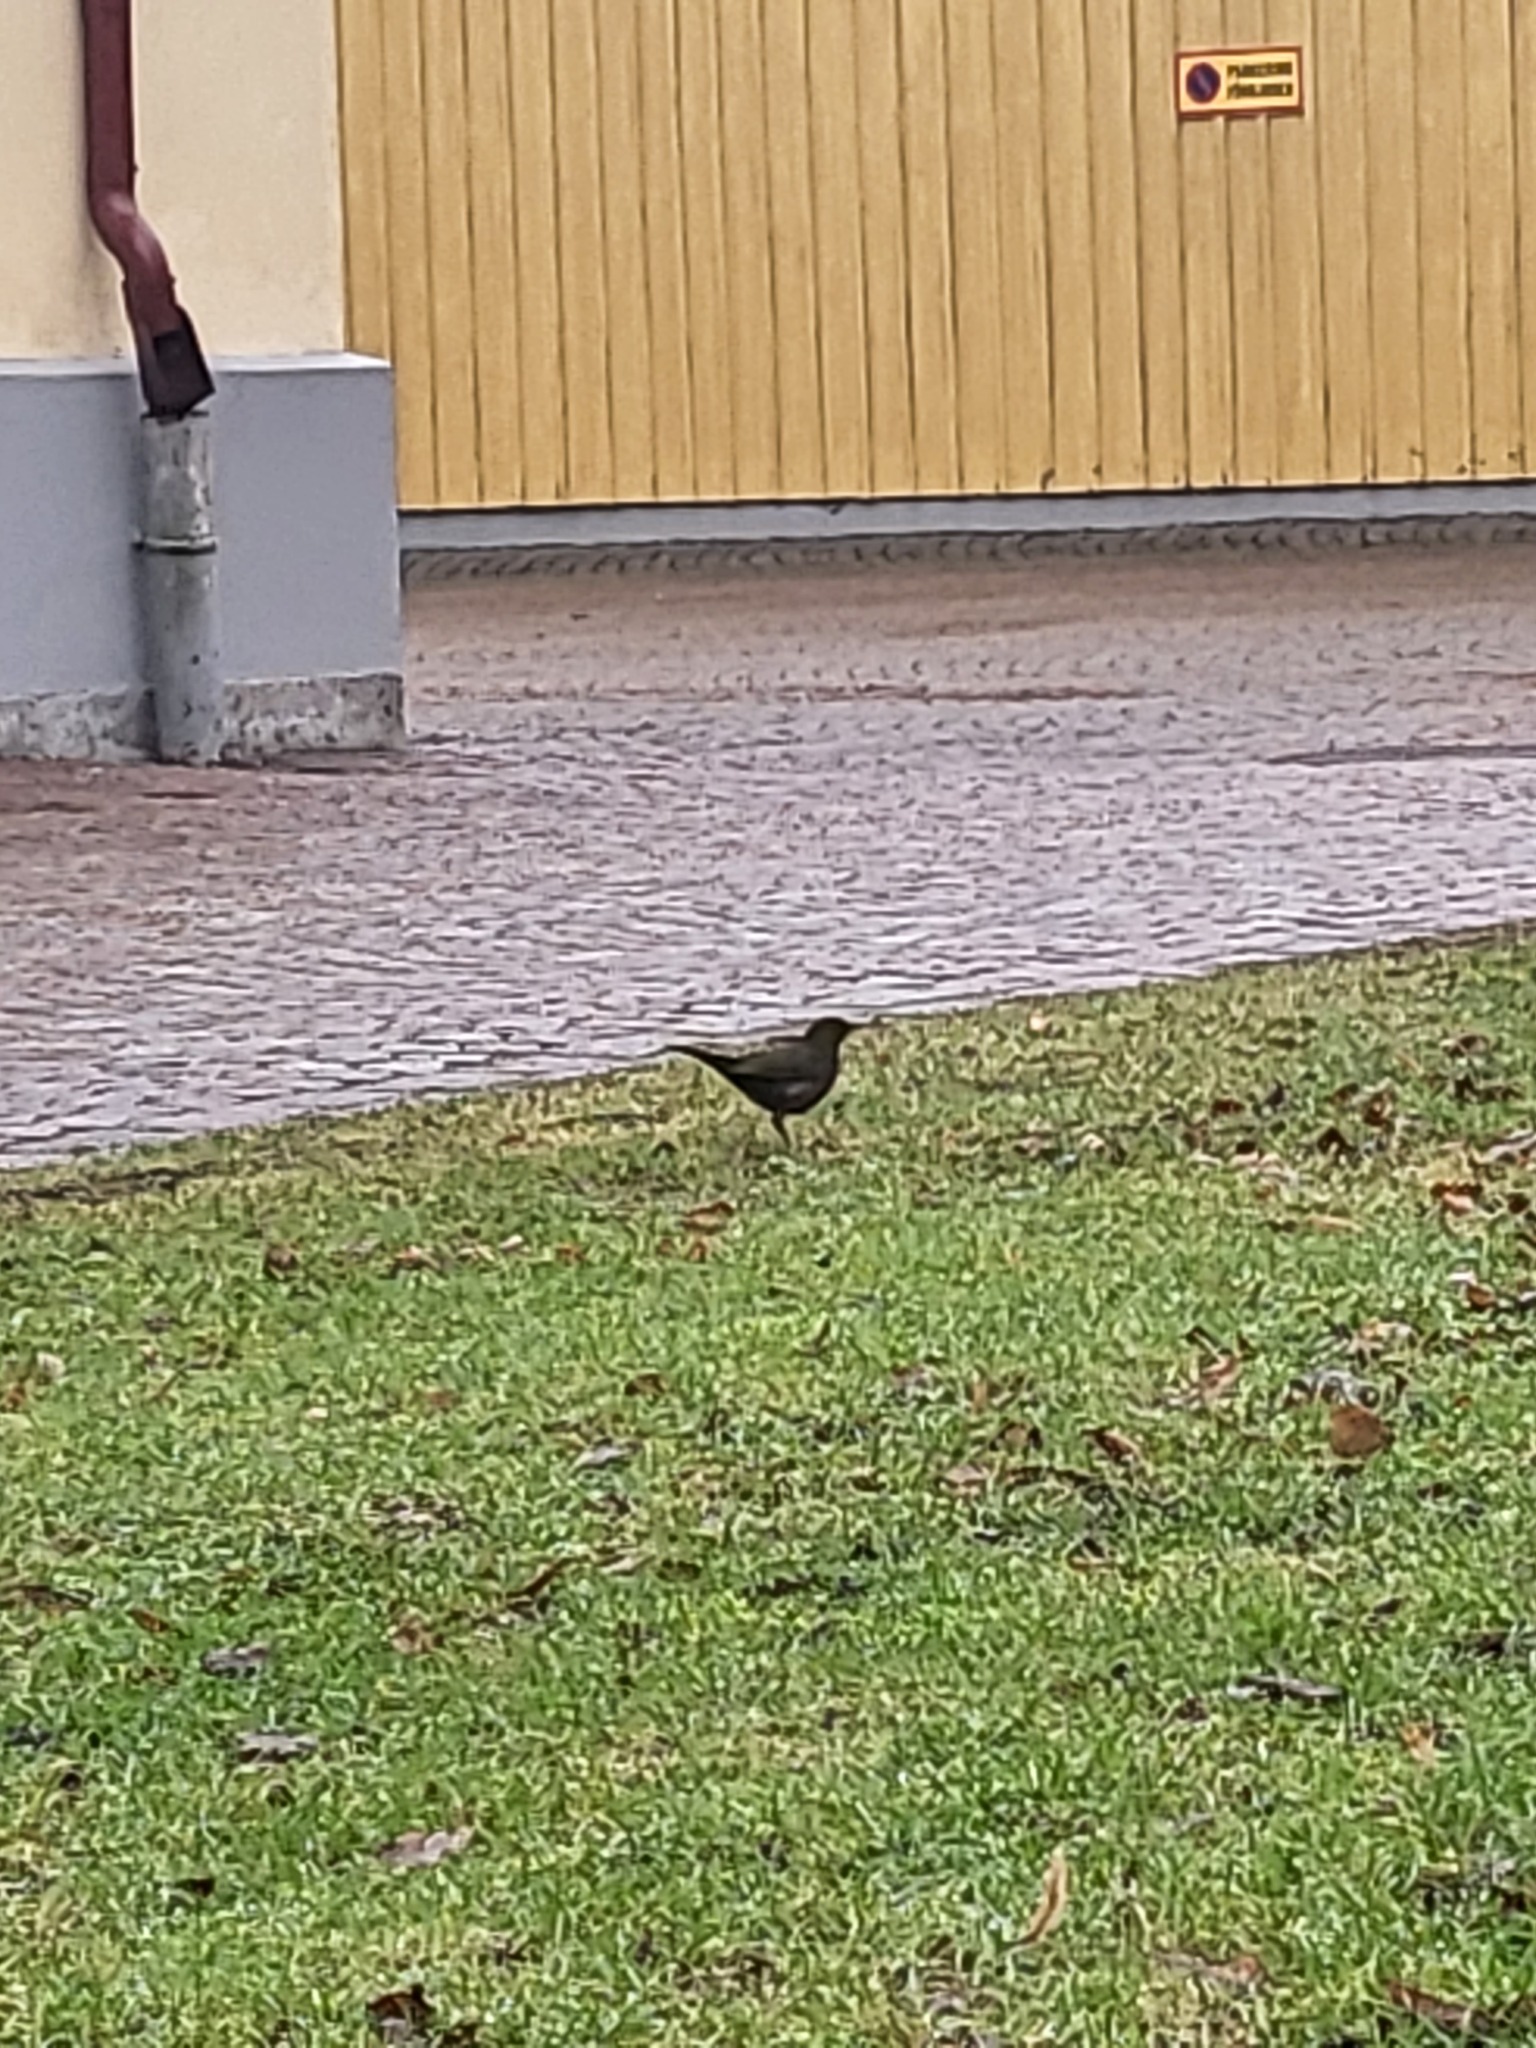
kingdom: Animalia
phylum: Chordata
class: Aves
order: Passeriformes
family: Turdidae
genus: Turdus
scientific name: Turdus merula
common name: Common blackbird
